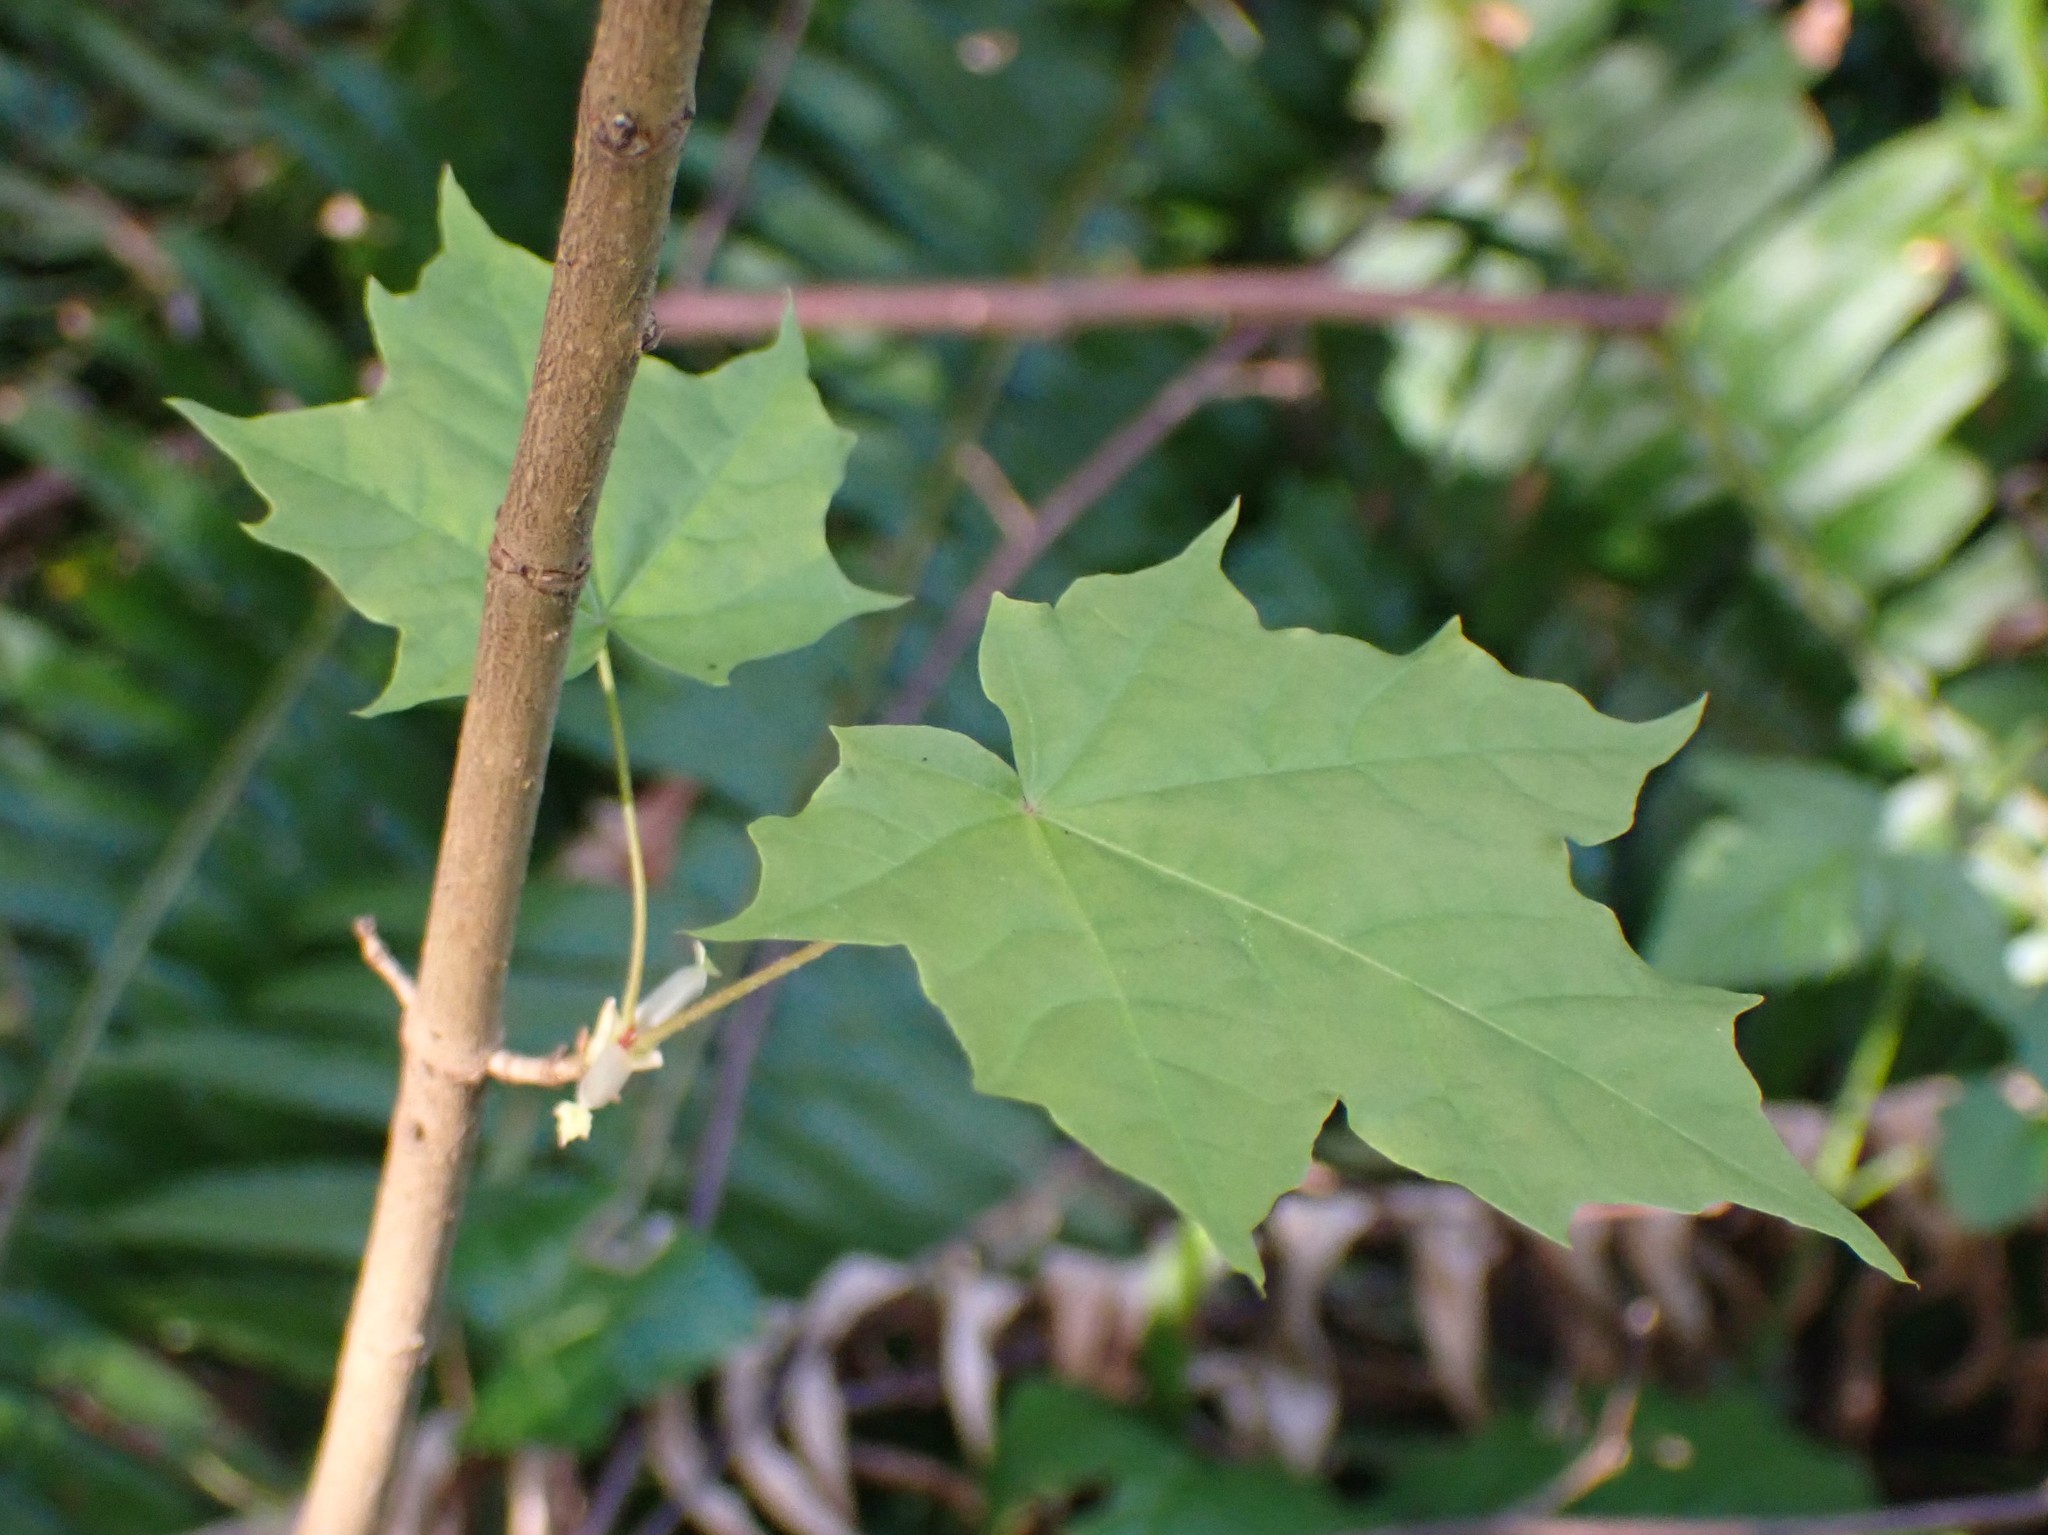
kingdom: Plantae
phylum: Tracheophyta
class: Magnoliopsida
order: Sapindales
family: Sapindaceae
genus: Acer
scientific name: Acer platanoides
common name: Norway maple
